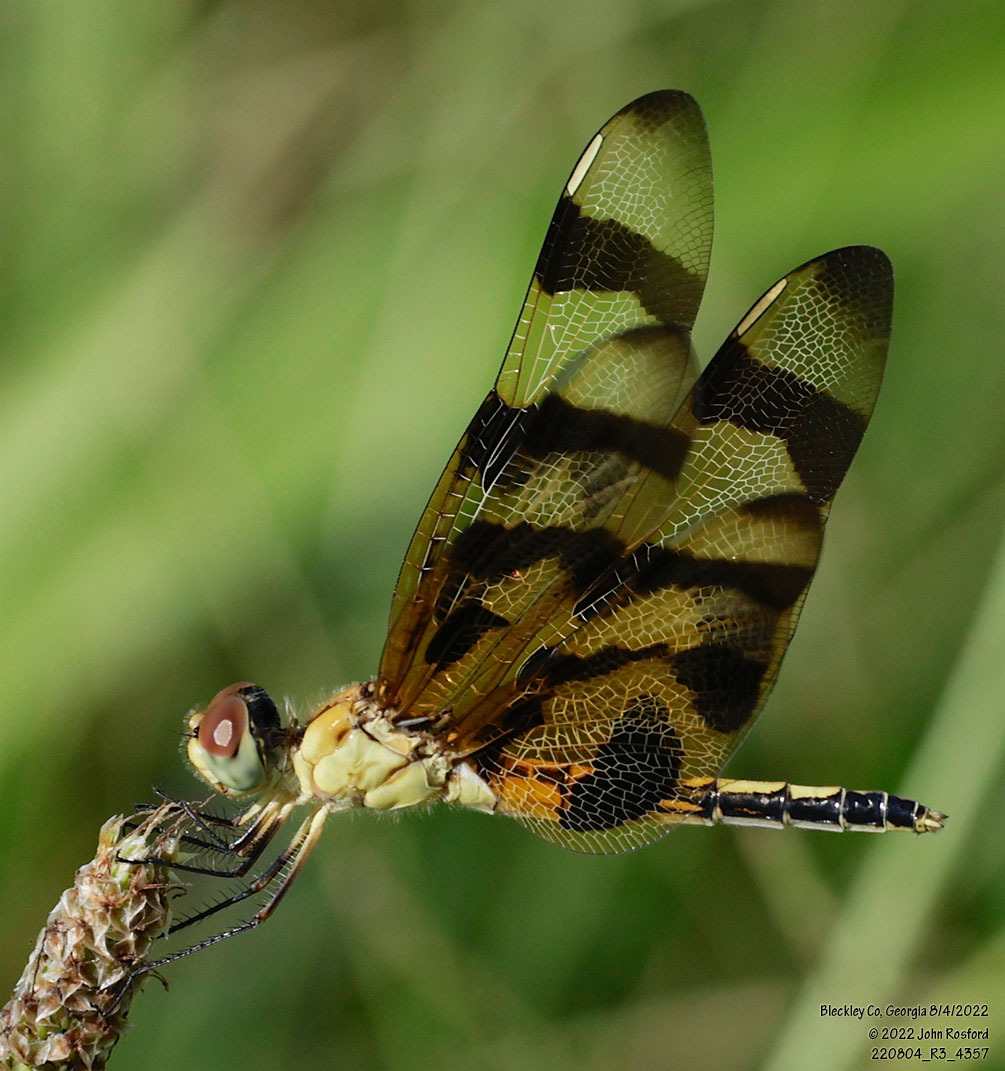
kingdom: Animalia
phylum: Arthropoda
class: Insecta
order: Odonata
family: Libellulidae
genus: Celithemis
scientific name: Celithemis eponina
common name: Halloween pennant
